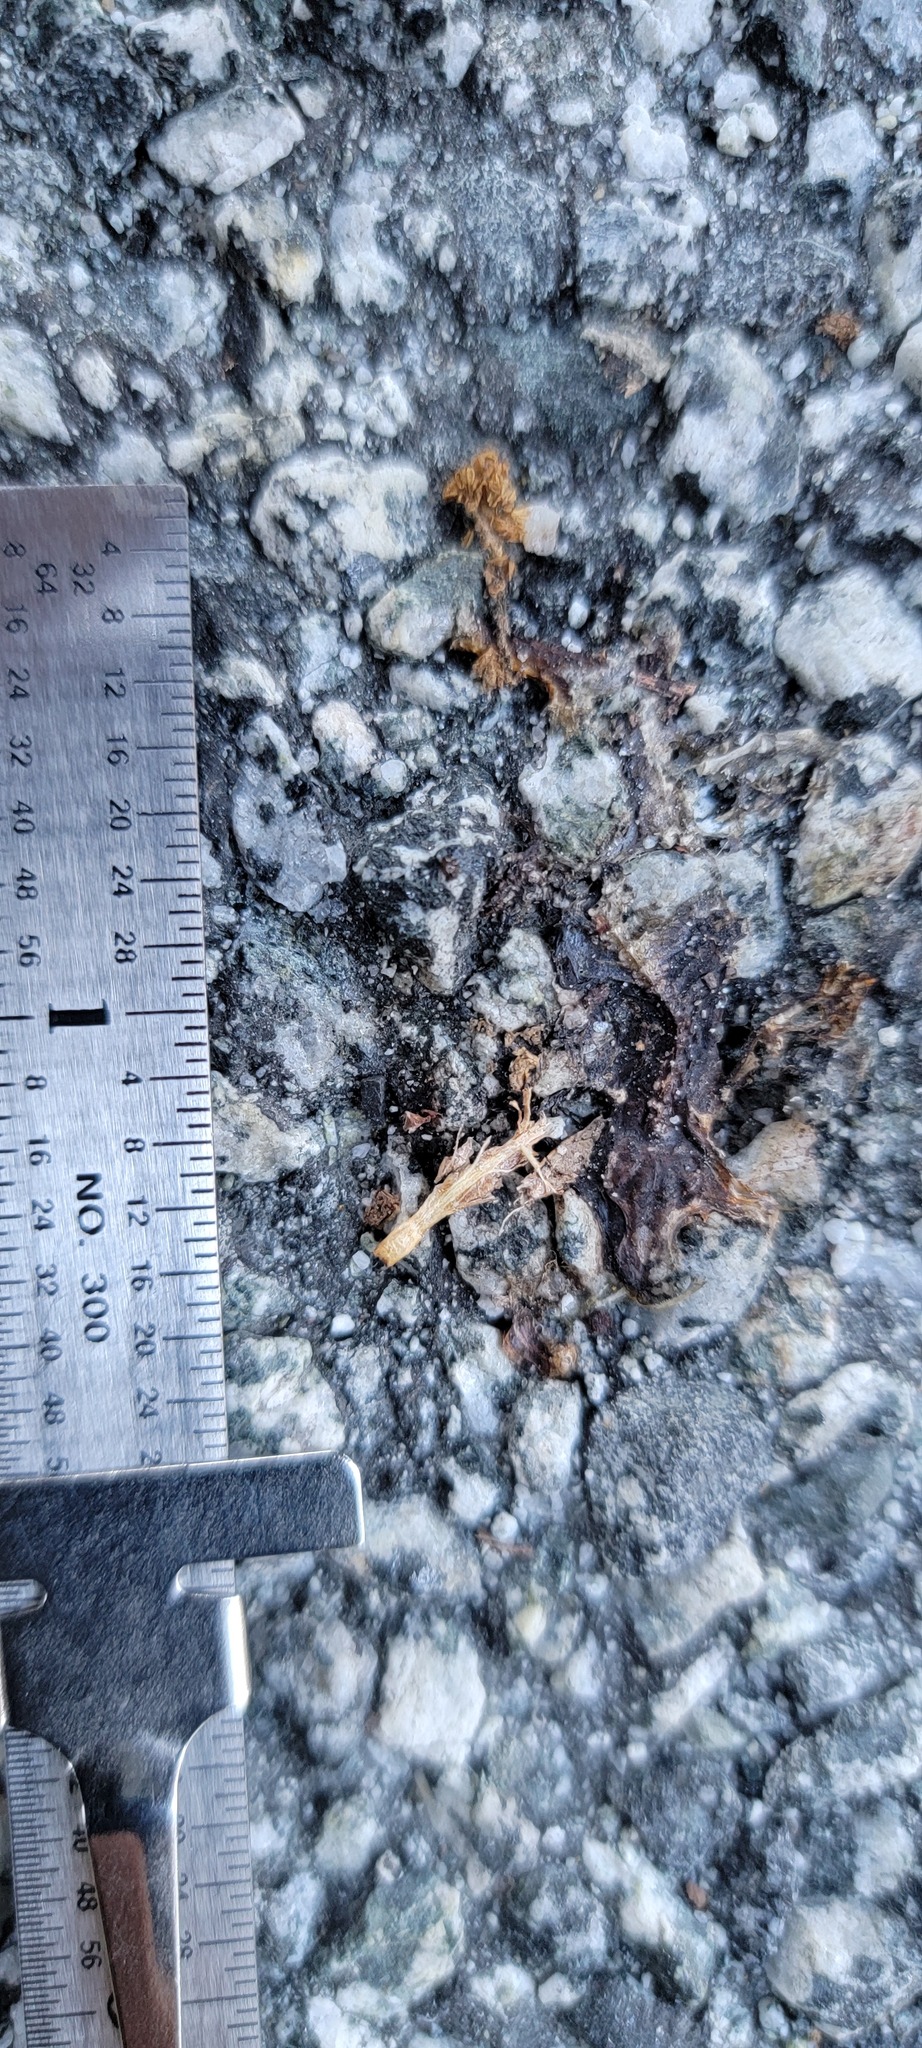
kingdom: Animalia
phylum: Chordata
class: Amphibia
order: Caudata
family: Salamandridae
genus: Taricha
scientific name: Taricha
